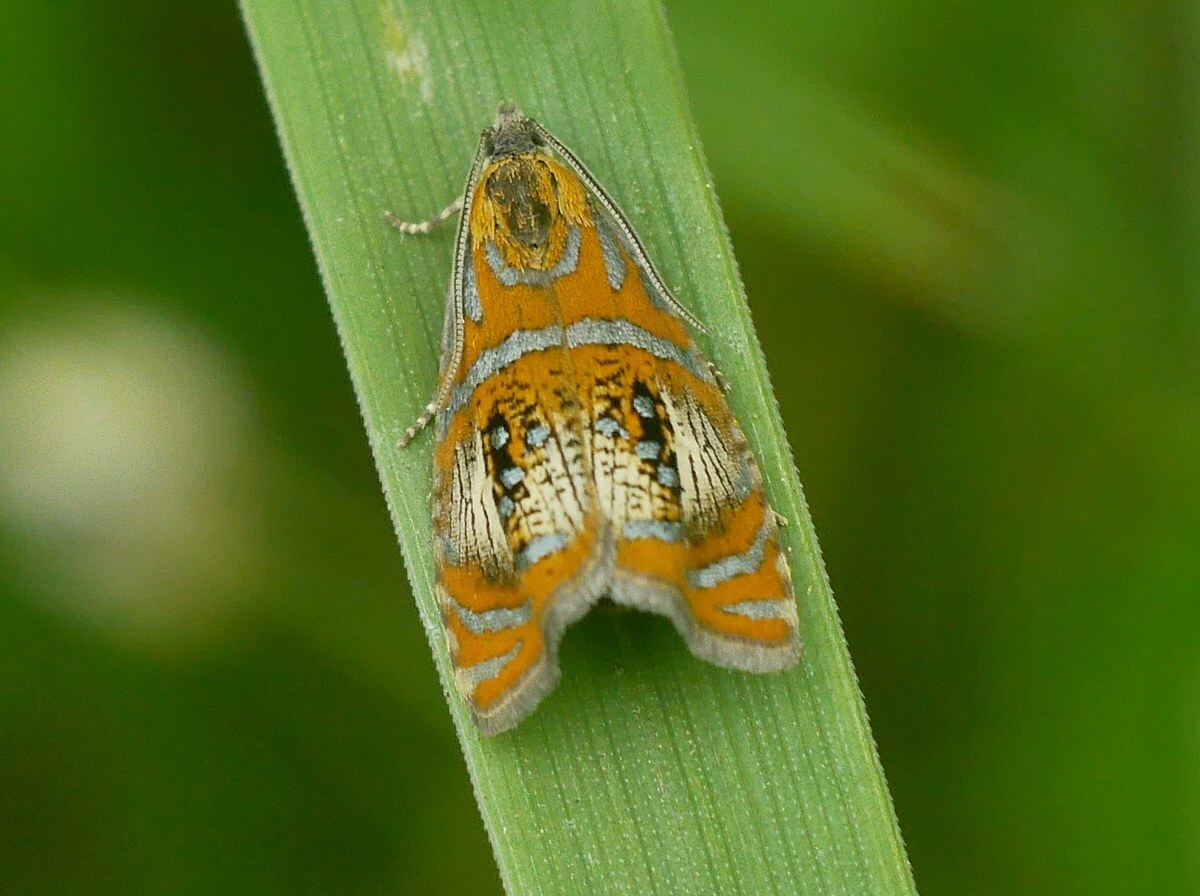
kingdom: Animalia
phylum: Arthropoda
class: Insecta
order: Lepidoptera
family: Tortricidae
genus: Olethreutes
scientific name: Olethreutes arcuella
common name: Arched marble
